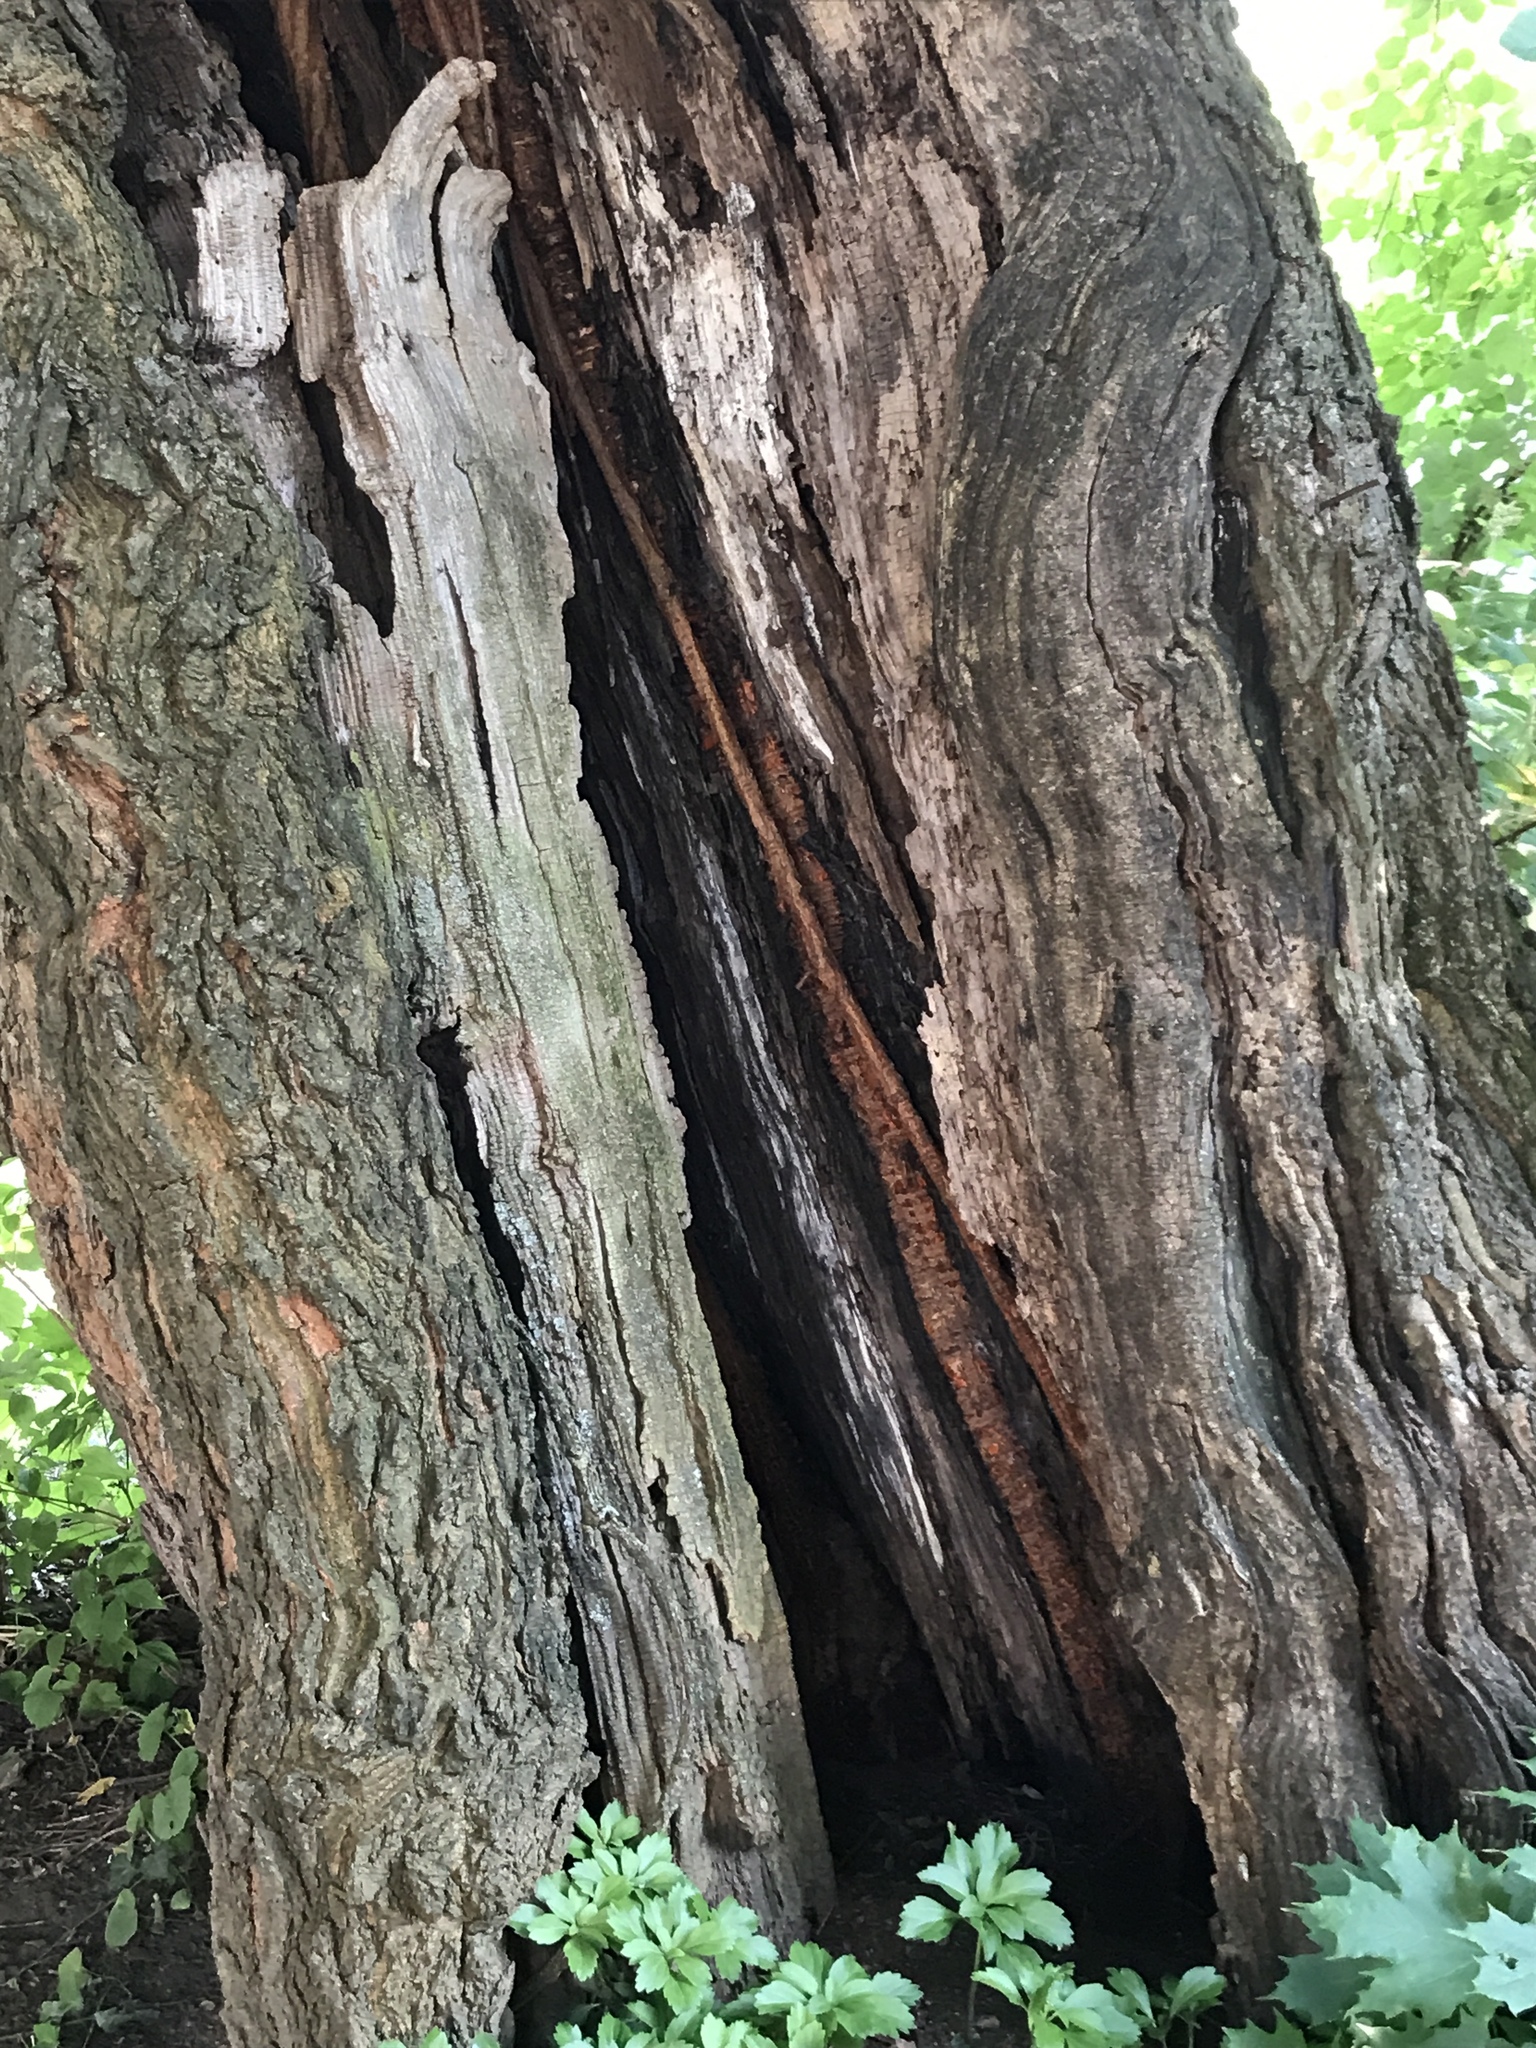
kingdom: Plantae
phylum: Tracheophyta
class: Magnoliopsida
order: Rosales
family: Moraceae
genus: Morus
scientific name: Morus alba
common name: White mulberry
